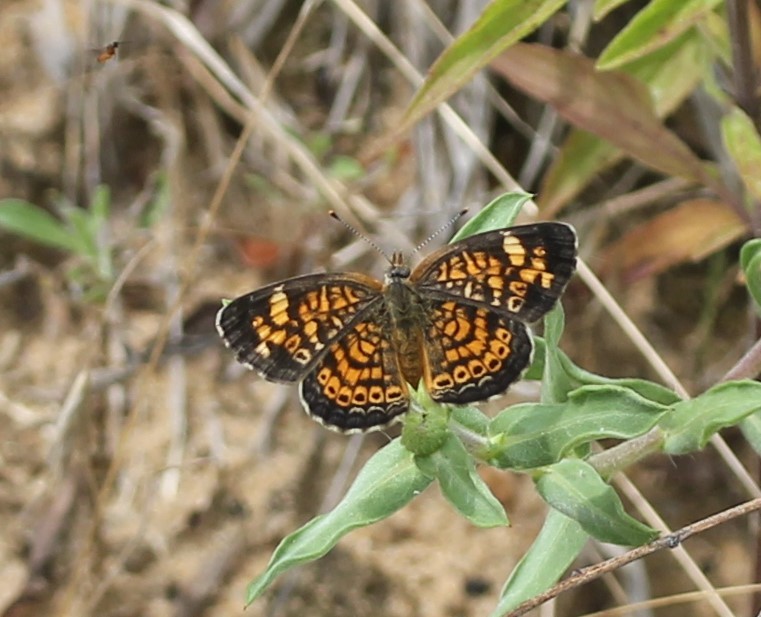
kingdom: Animalia
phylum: Arthropoda
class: Insecta
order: Lepidoptera
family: Nymphalidae
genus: Phyciodes
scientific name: Phyciodes tharos
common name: Pearl crescent
